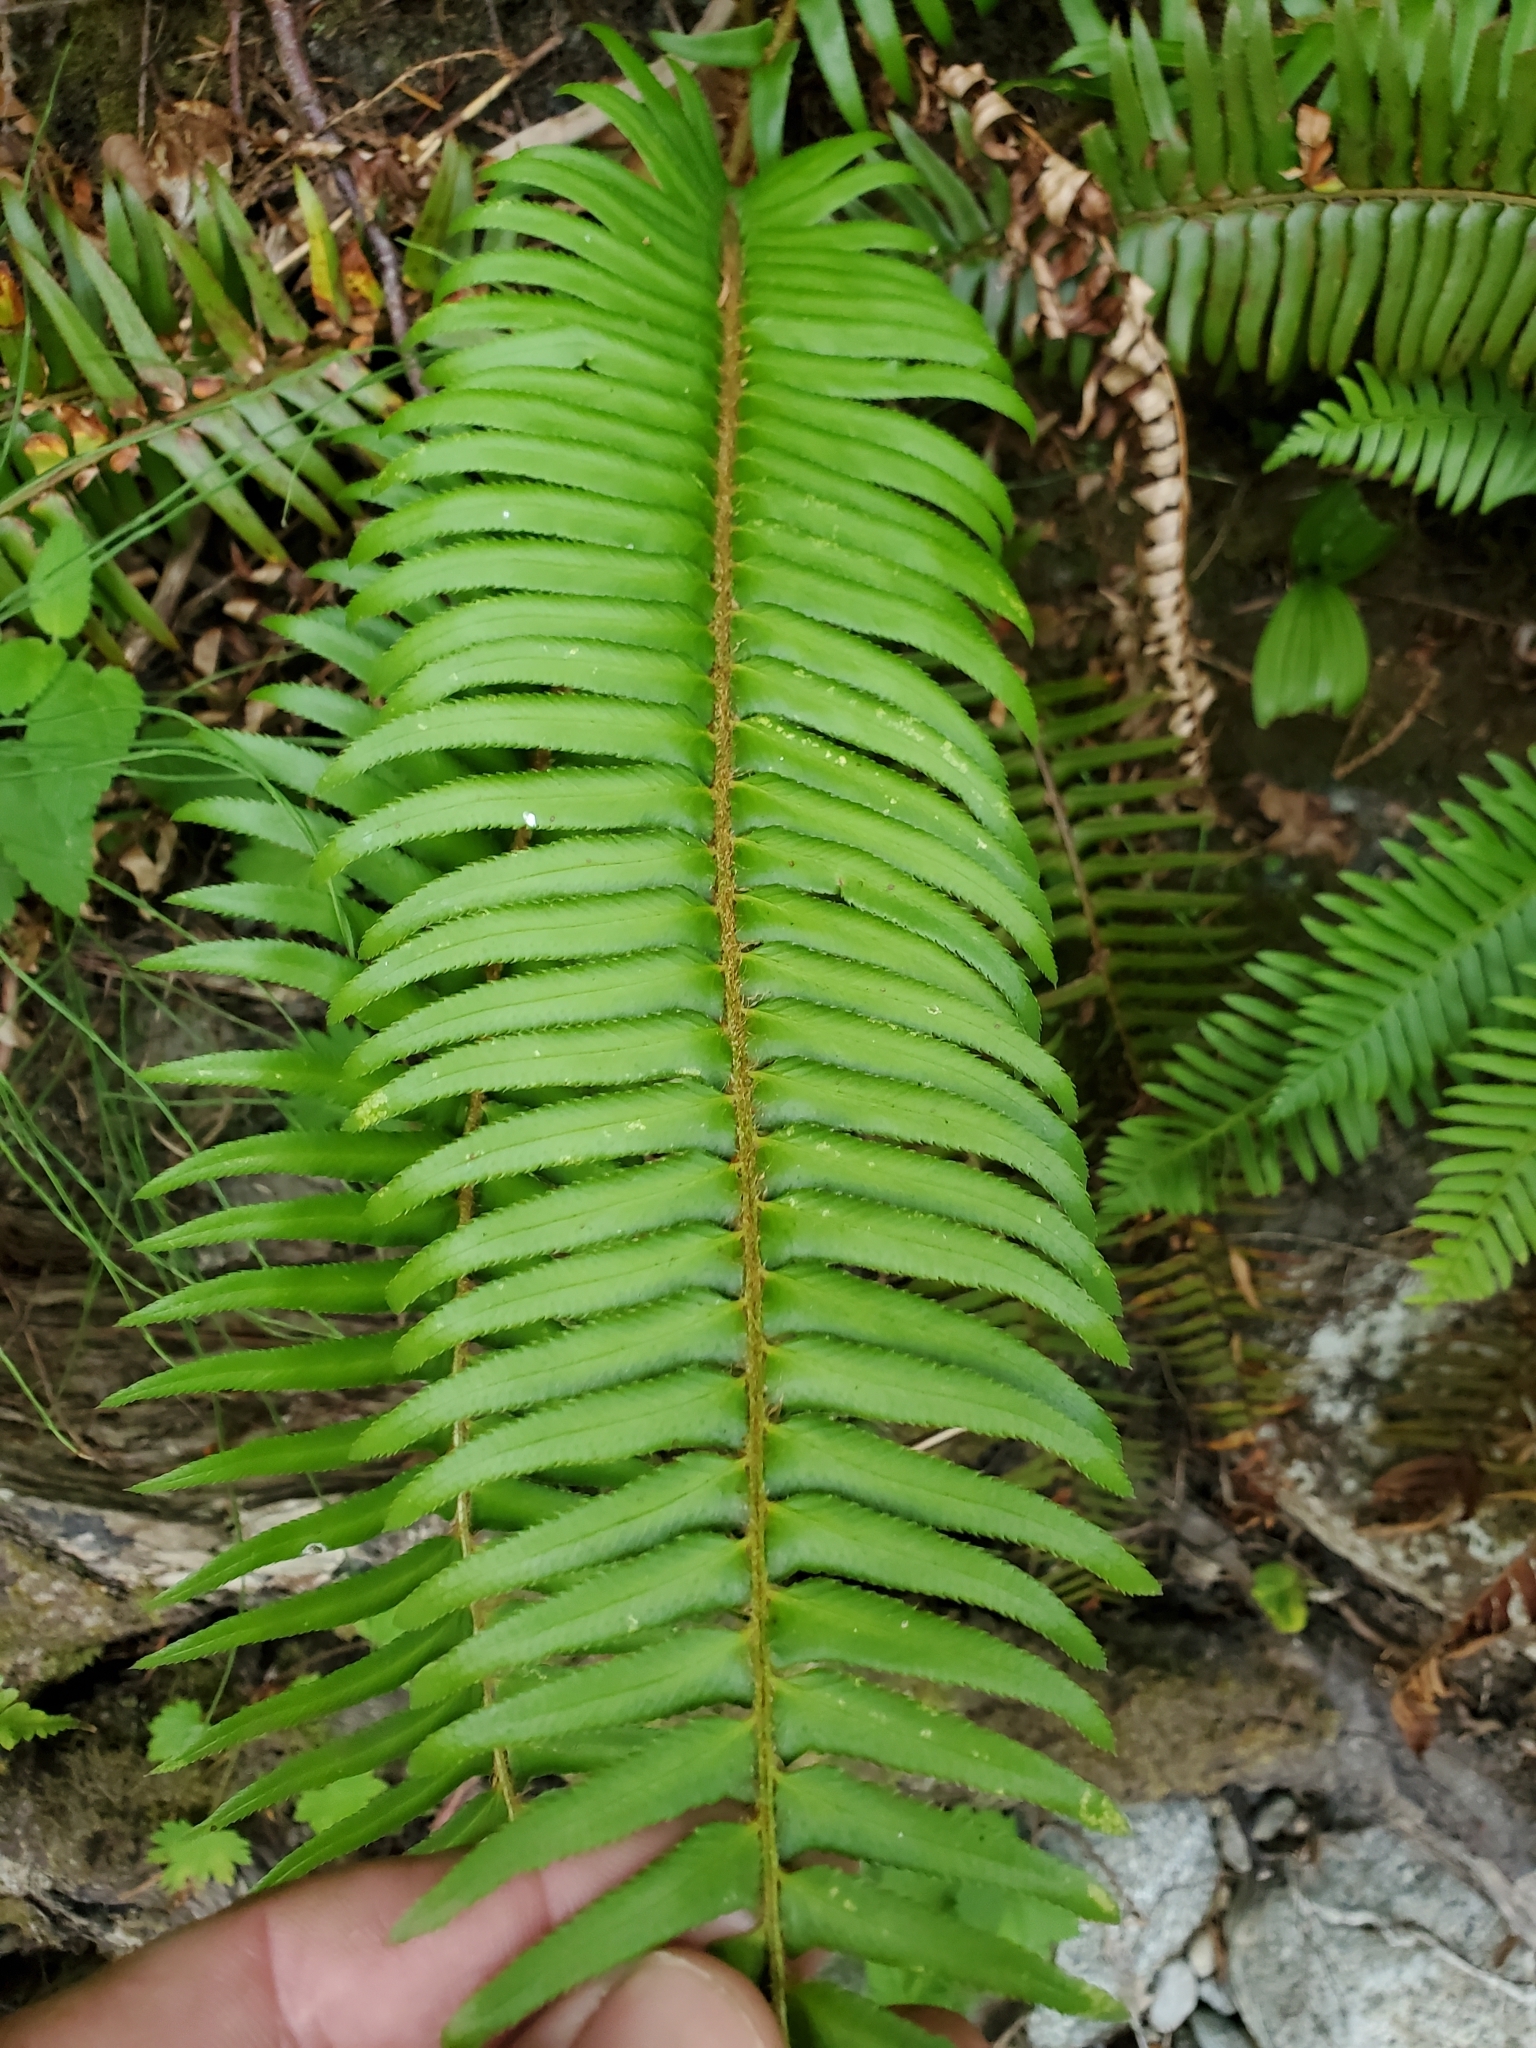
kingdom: Plantae
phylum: Tracheophyta
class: Polypodiopsida
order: Polypodiales
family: Dryopteridaceae
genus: Polystichum
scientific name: Polystichum munitum
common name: Western sword-fern
